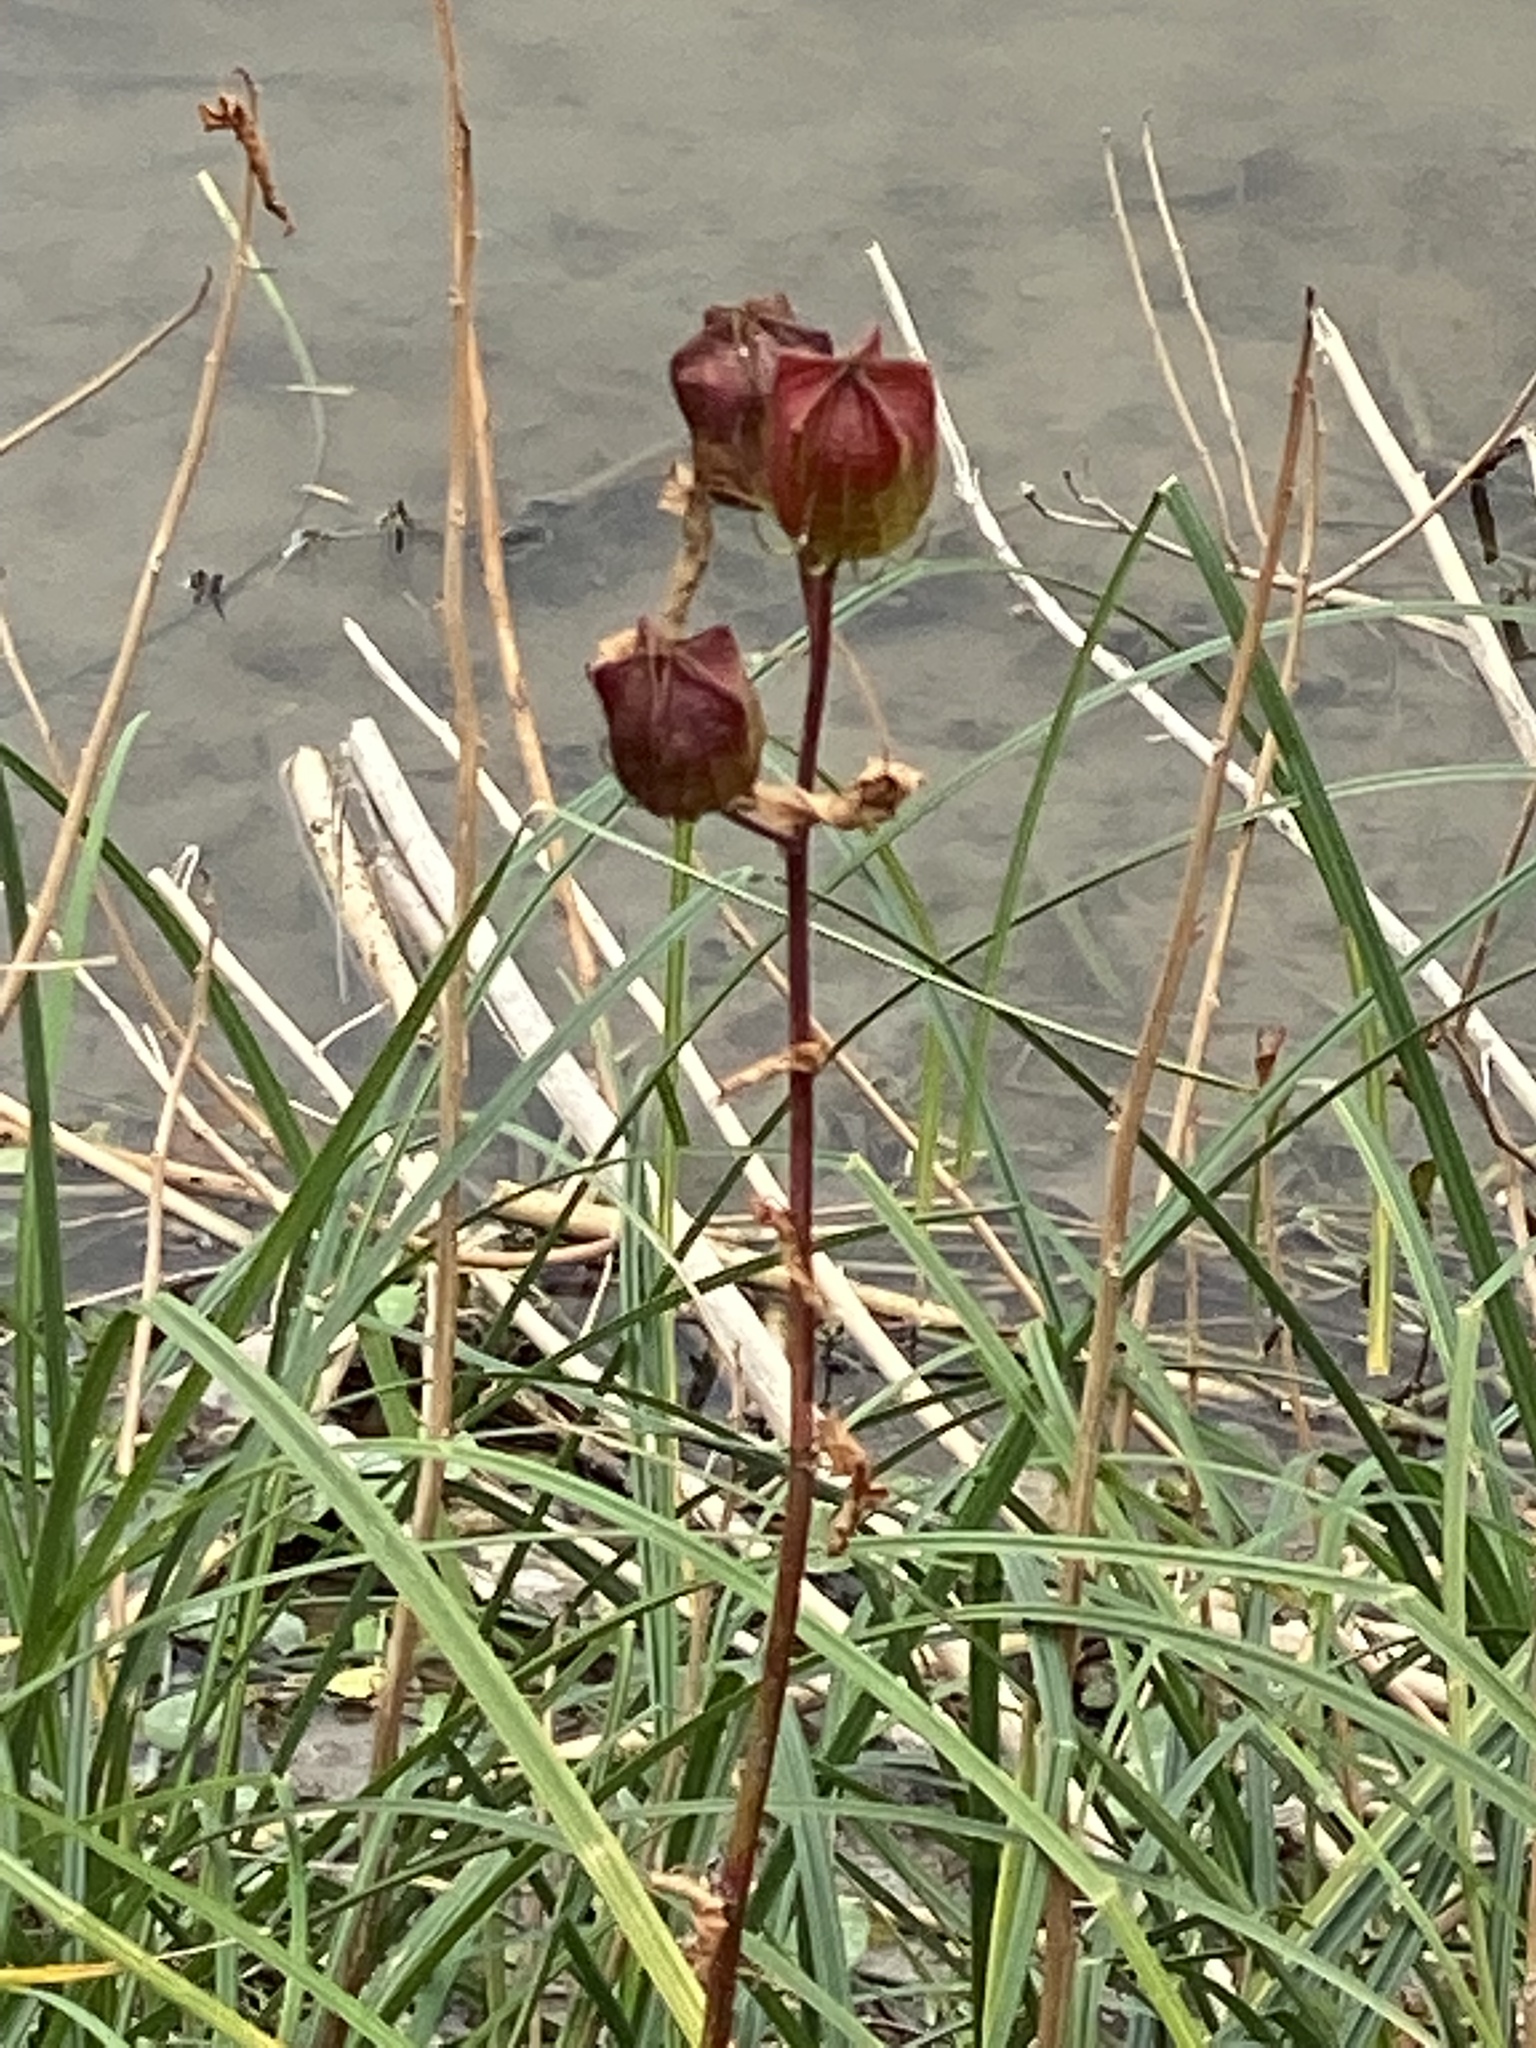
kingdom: Plantae
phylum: Tracheophyta
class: Magnoliopsida
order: Malvales
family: Malvaceae
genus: Hibiscus
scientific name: Hibiscus laevis
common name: Scarlet rose-mallow
